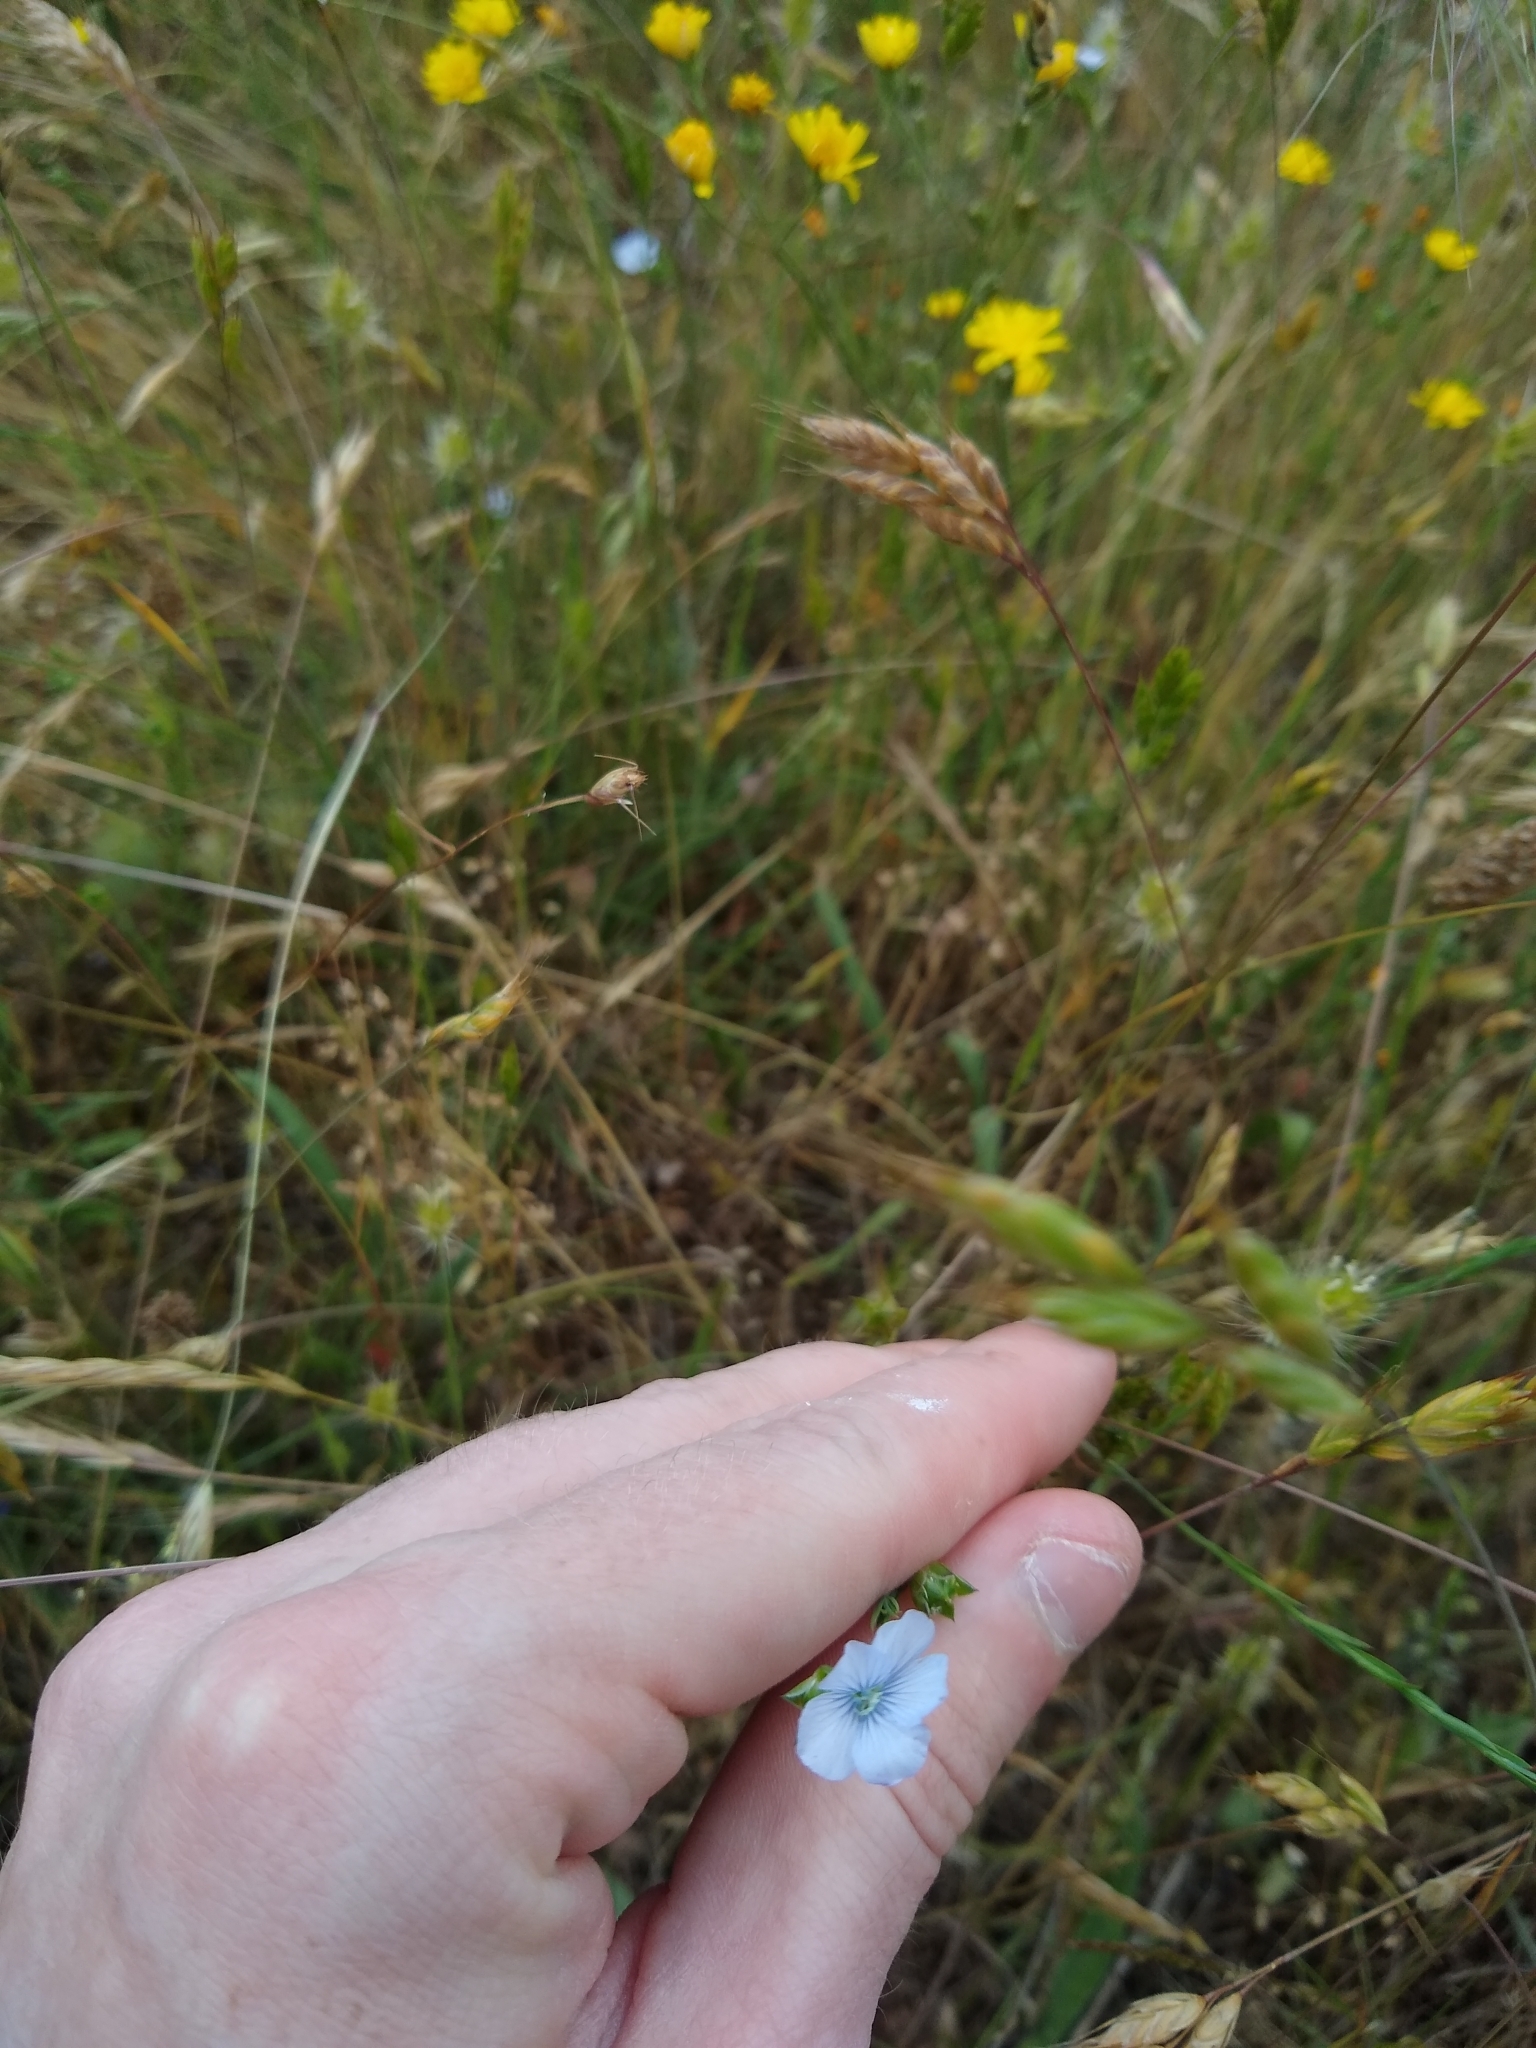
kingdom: Plantae
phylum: Tracheophyta
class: Magnoliopsida
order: Malpighiales
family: Linaceae
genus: Linum
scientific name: Linum bienne
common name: Pale flax
